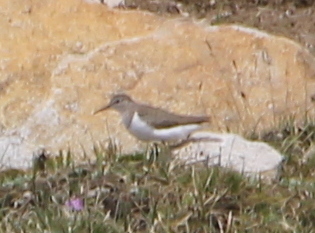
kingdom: Animalia
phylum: Chordata
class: Aves
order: Charadriiformes
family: Scolopacidae
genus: Actitis
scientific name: Actitis hypoleucos
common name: Common sandpiper
